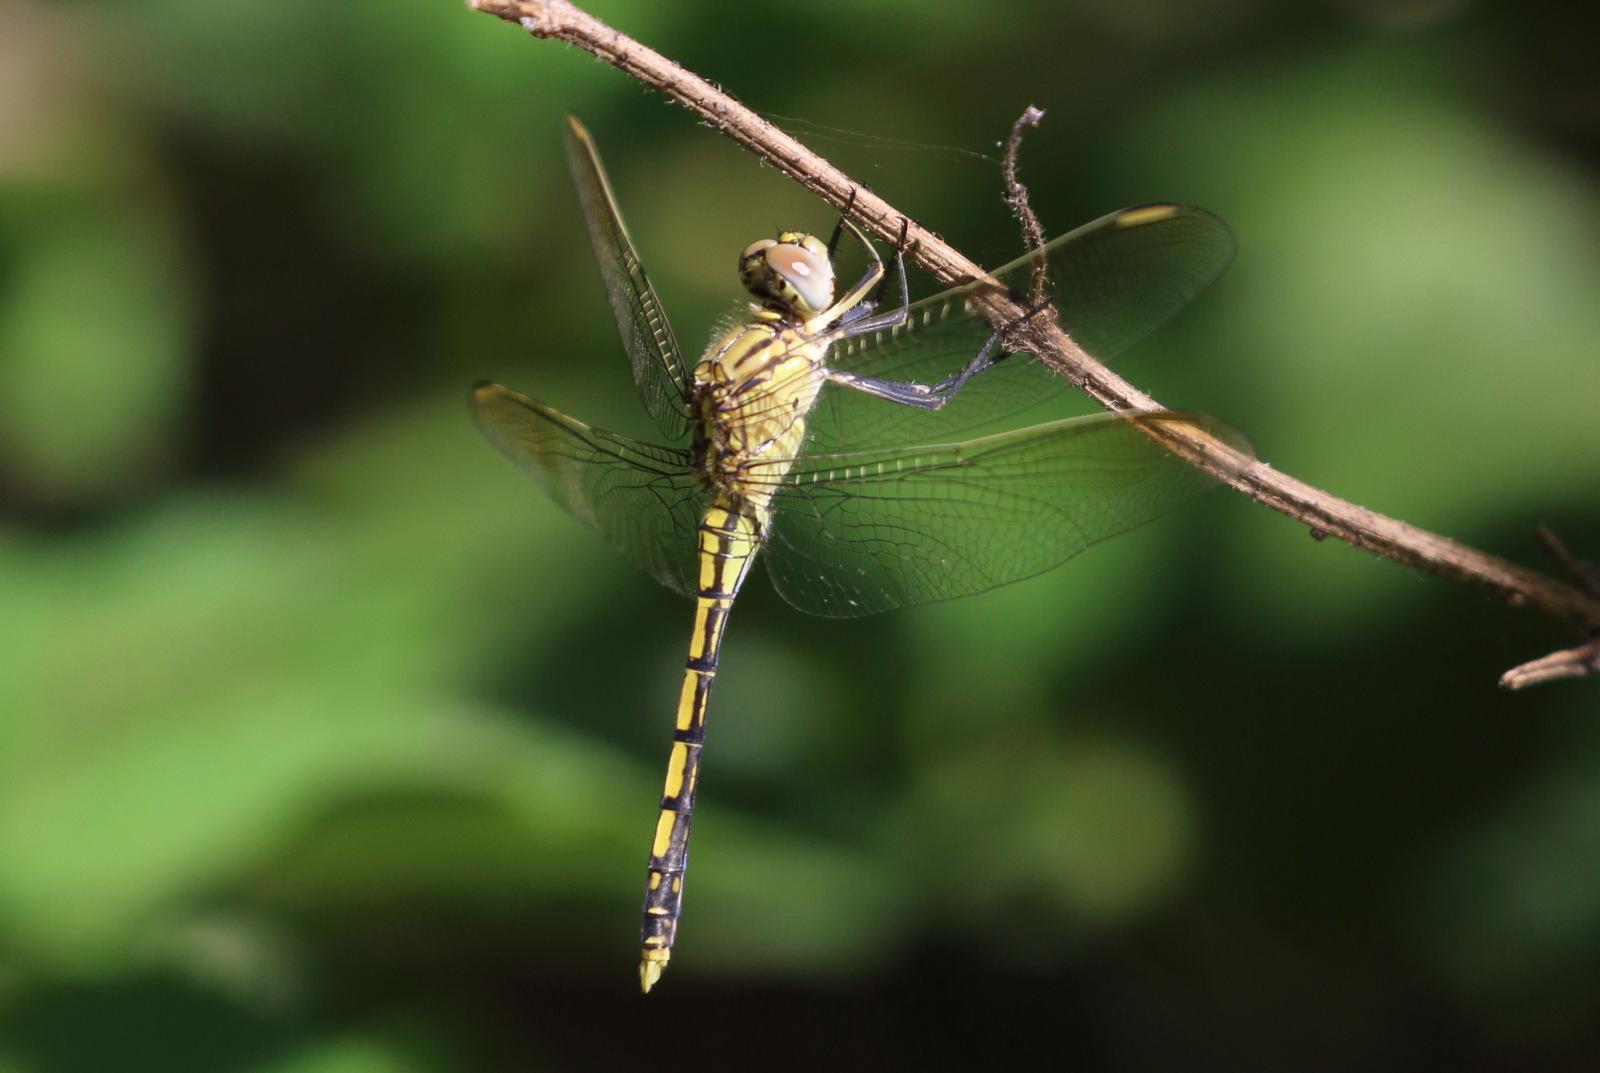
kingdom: Animalia
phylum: Arthropoda
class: Insecta
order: Odonata
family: Libellulidae
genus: Orthetrum
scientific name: Orthetrum caledonicum
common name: Blue skimmer
